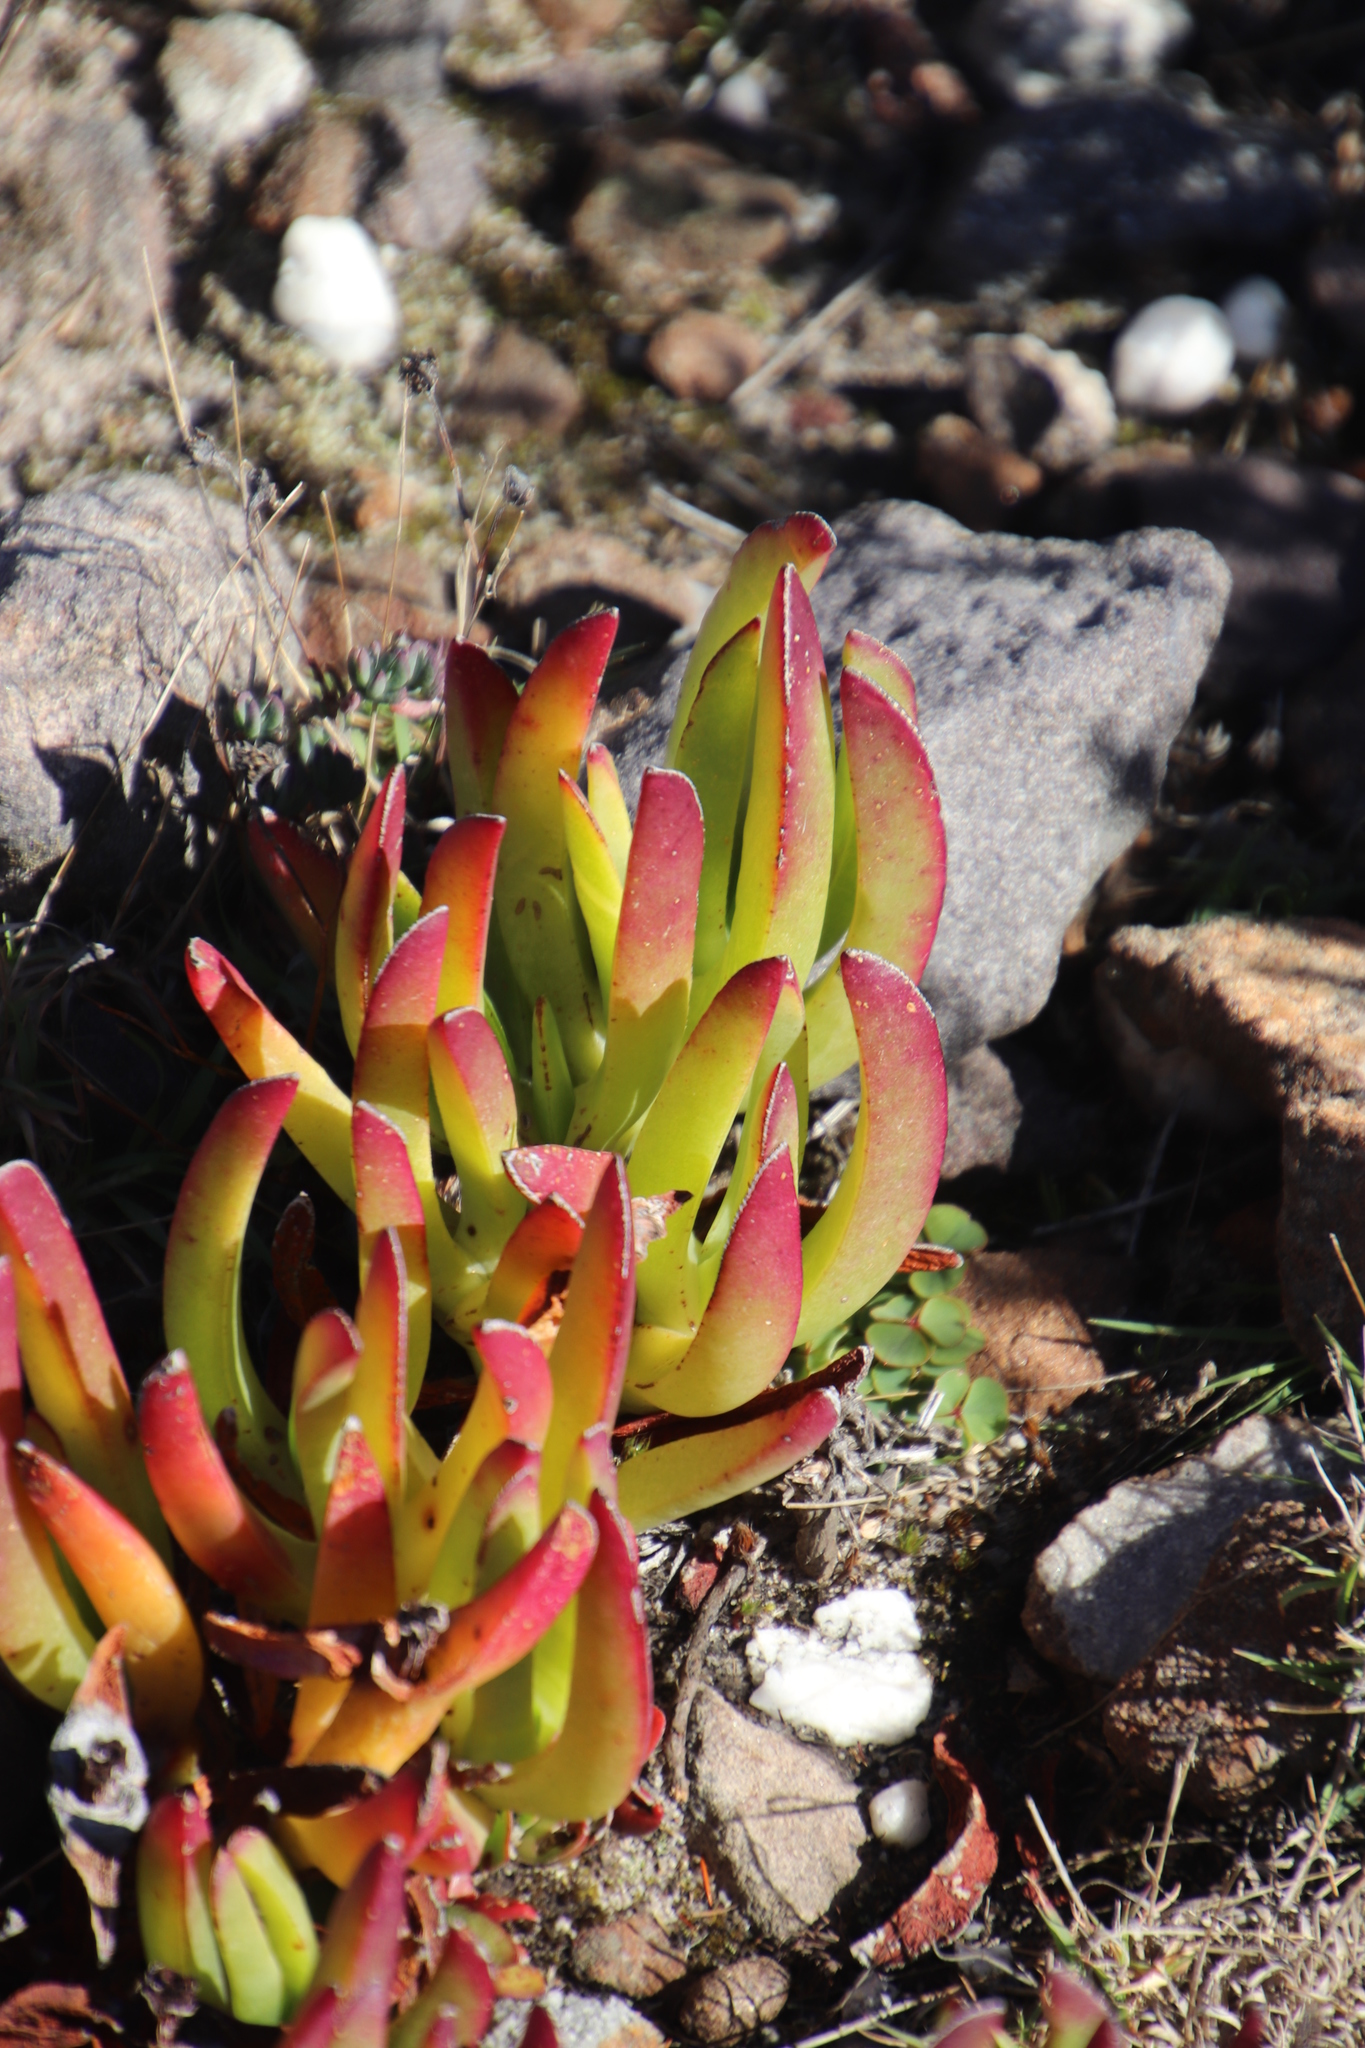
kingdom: Plantae
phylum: Tracheophyta
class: Magnoliopsida
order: Caryophyllales
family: Aizoaceae
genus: Carpobrotus
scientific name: Carpobrotus edulis
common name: Hottentot-fig
